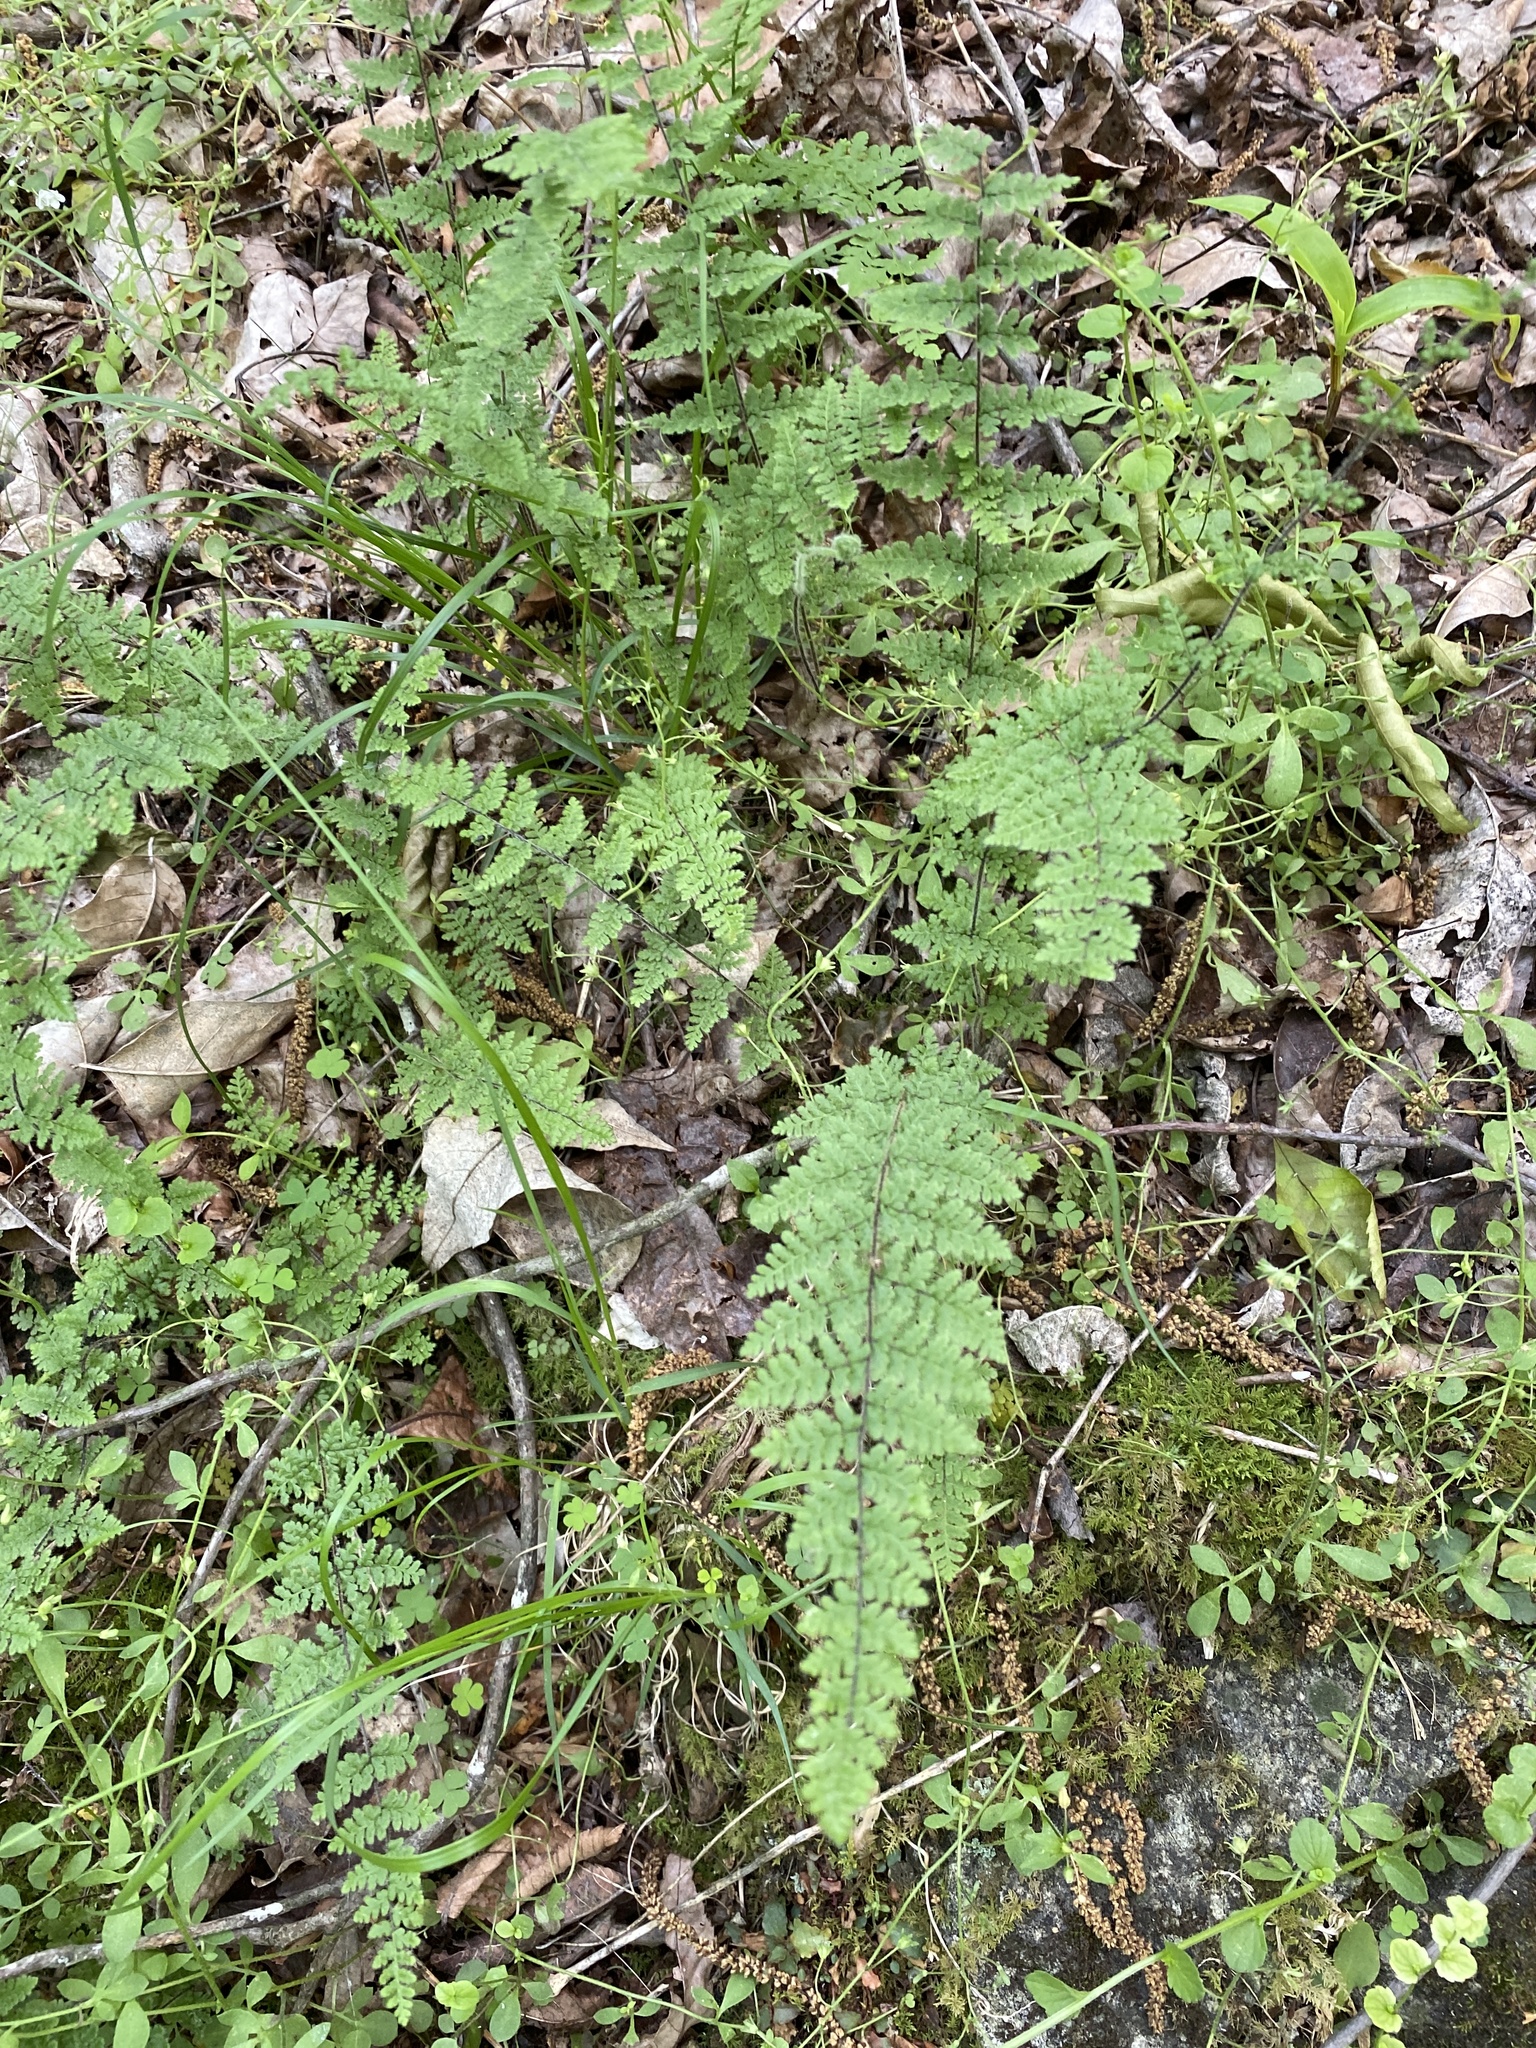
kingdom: Plantae
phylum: Tracheophyta
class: Polypodiopsida
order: Polypodiales
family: Pteridaceae
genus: Myriopteris
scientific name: Myriopteris lanosa
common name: Hairy lip fern
